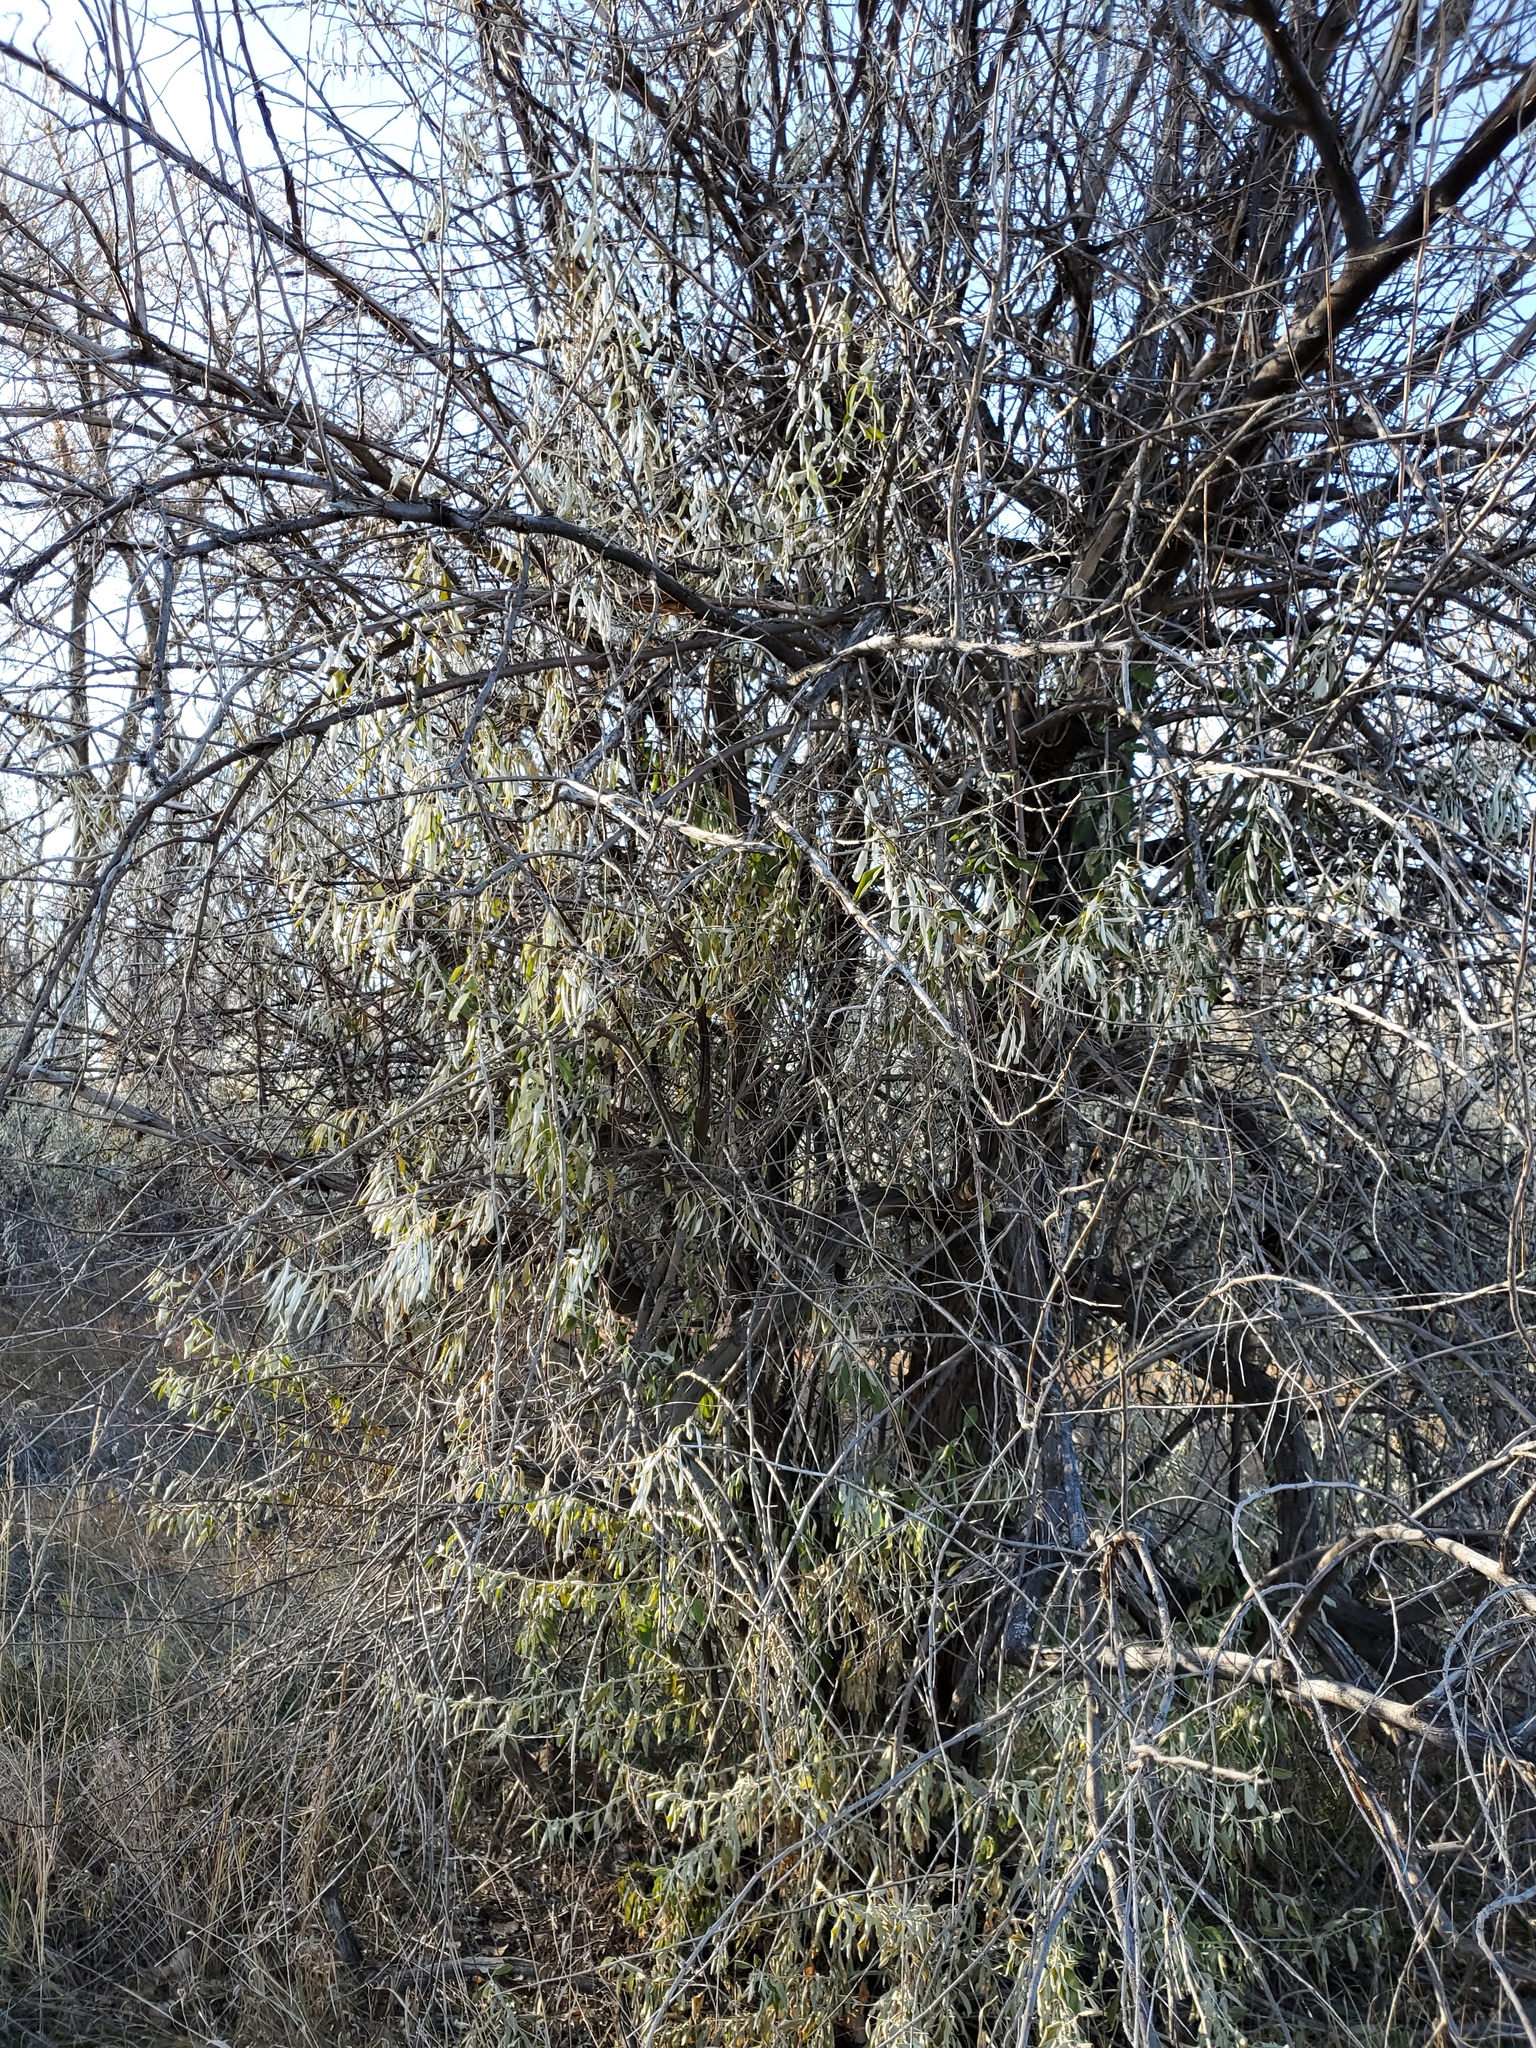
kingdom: Plantae
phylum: Tracheophyta
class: Magnoliopsida
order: Rosales
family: Elaeagnaceae
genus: Elaeagnus
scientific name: Elaeagnus angustifolia
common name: Russian olive
